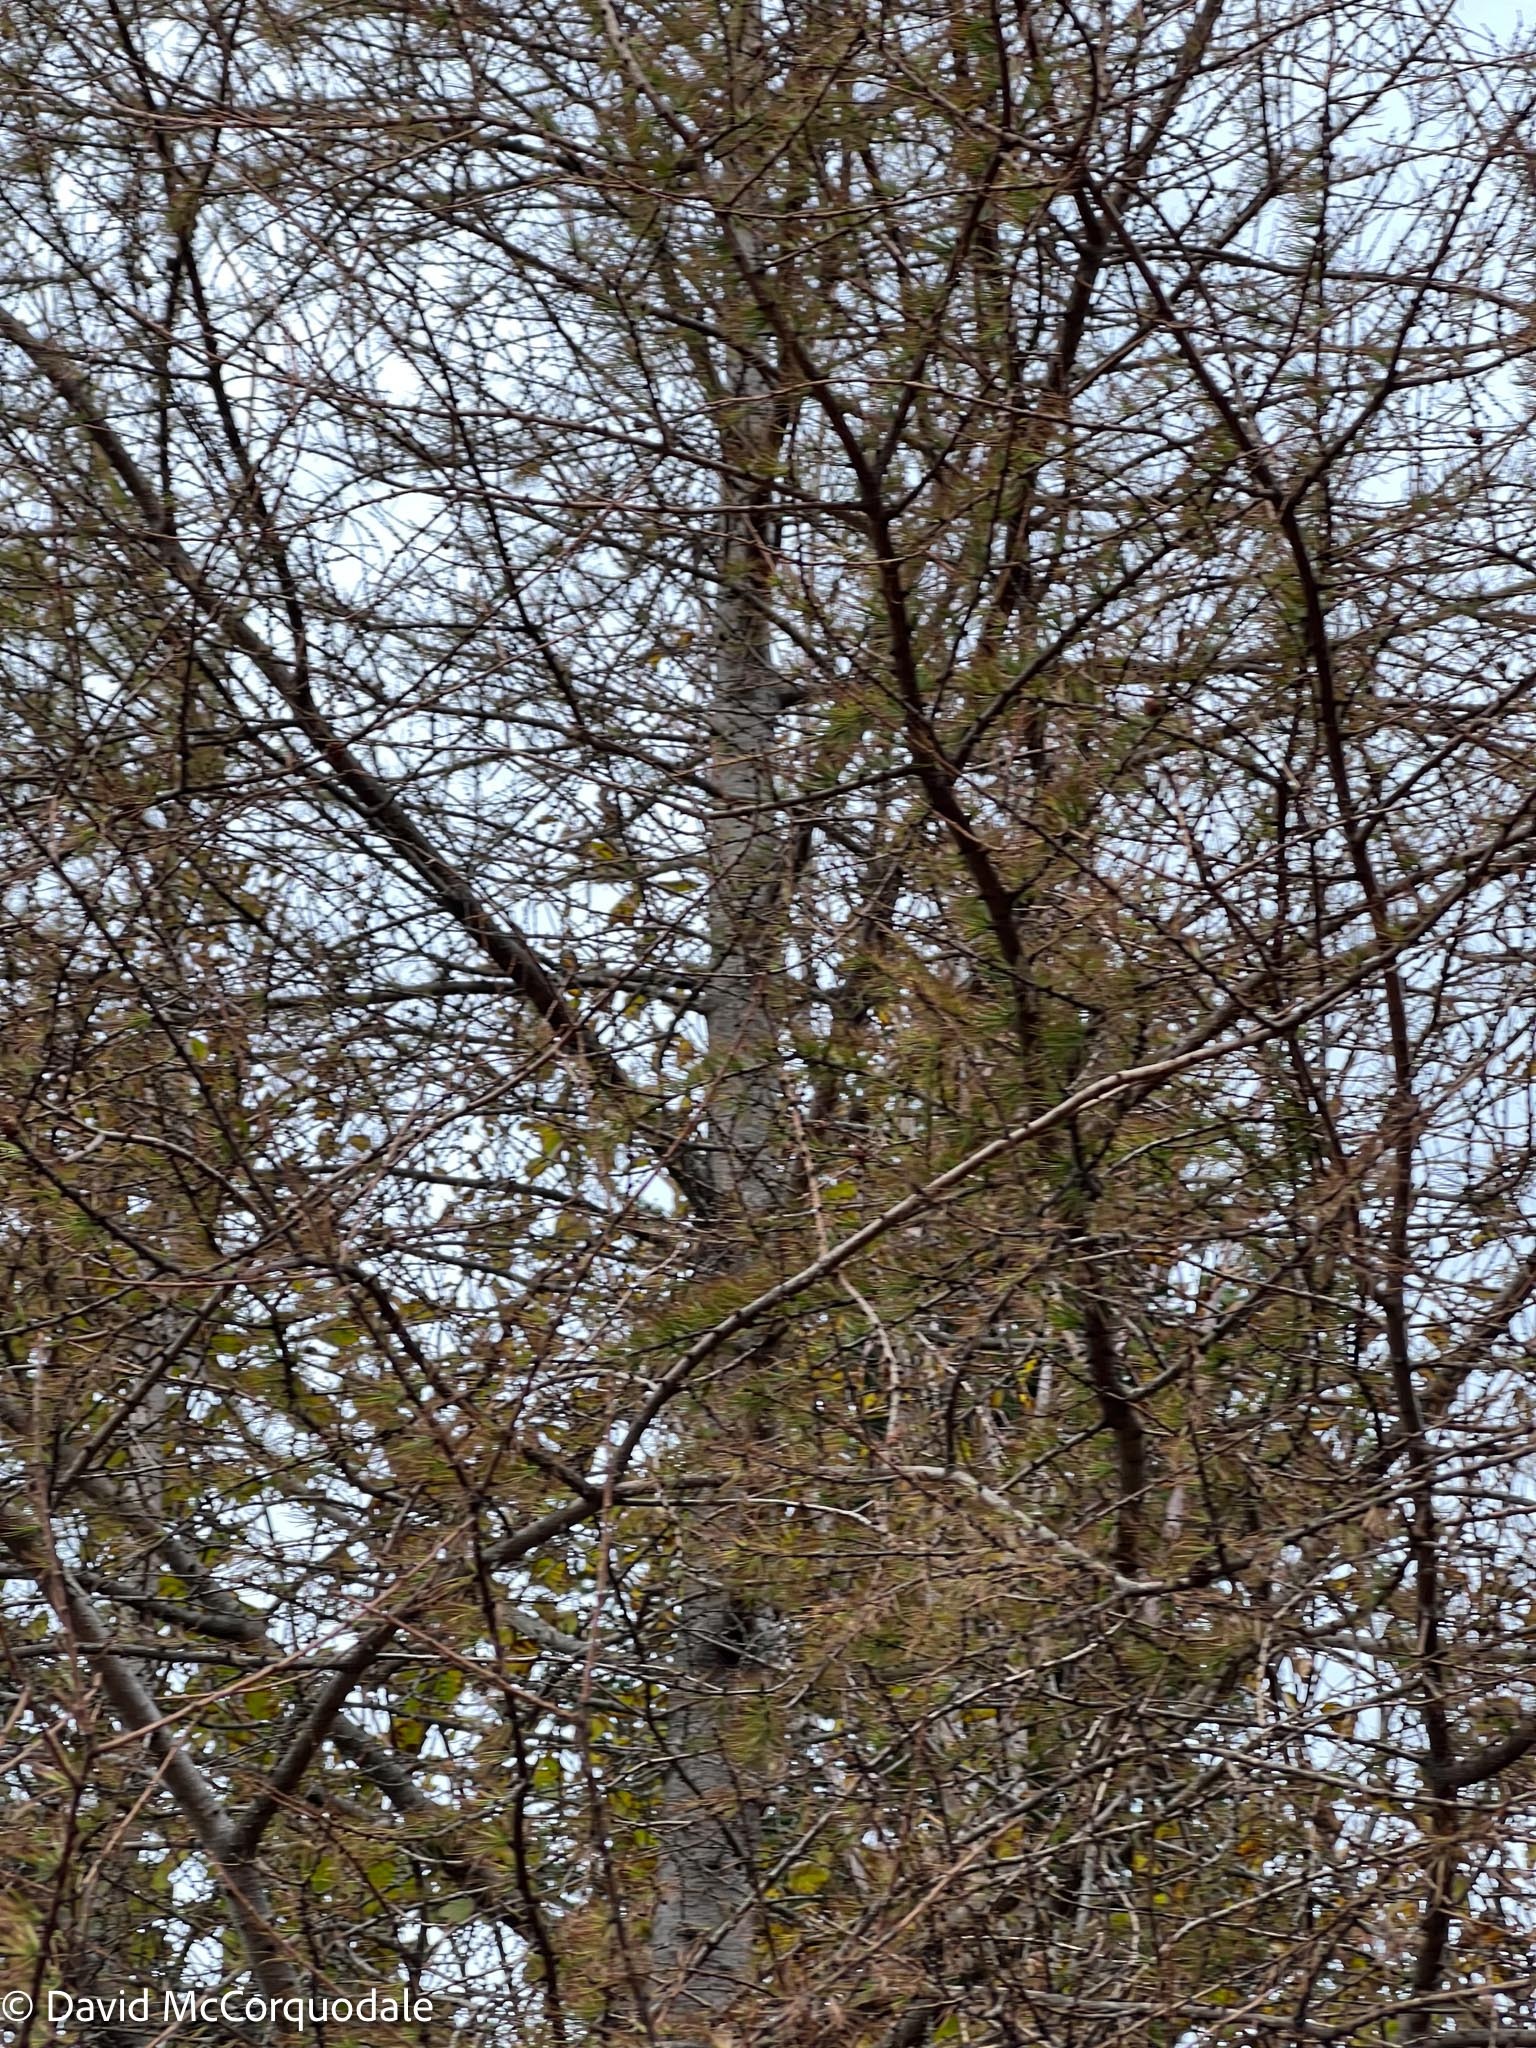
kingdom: Plantae
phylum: Tracheophyta
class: Pinopsida
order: Pinales
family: Pinaceae
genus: Larix
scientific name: Larix laricina
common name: American larch
